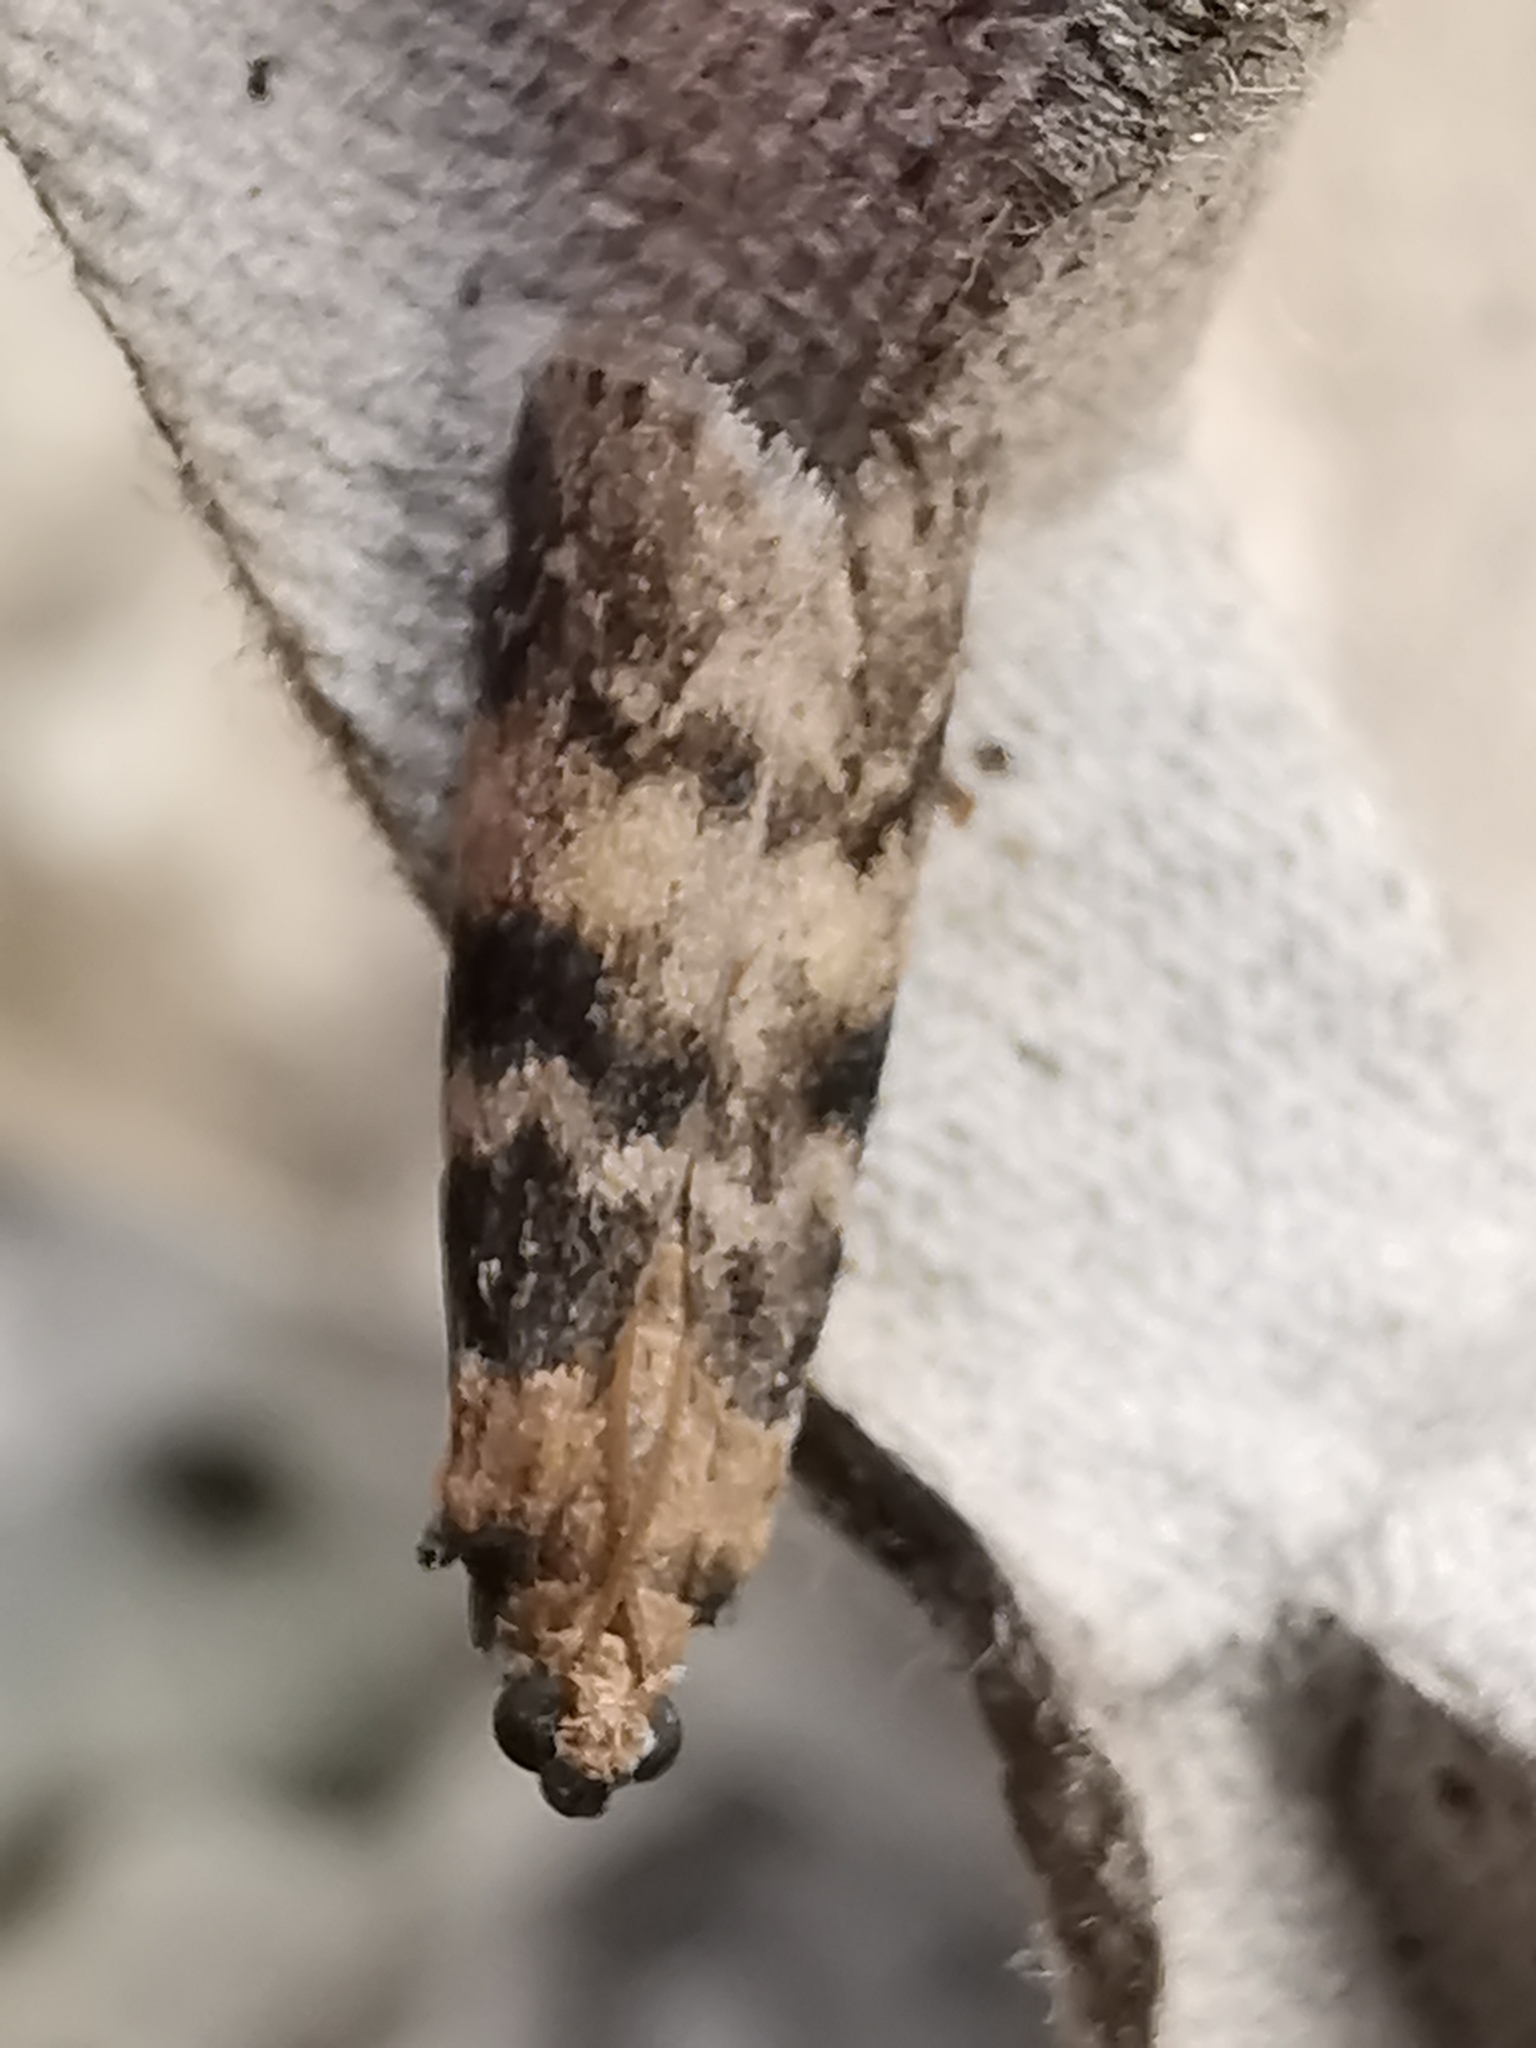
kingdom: Animalia
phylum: Arthropoda
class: Insecta
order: Lepidoptera
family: Pyralidae
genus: Euzophera
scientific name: Euzophera pinguis
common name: Ash-bark knot-horn
